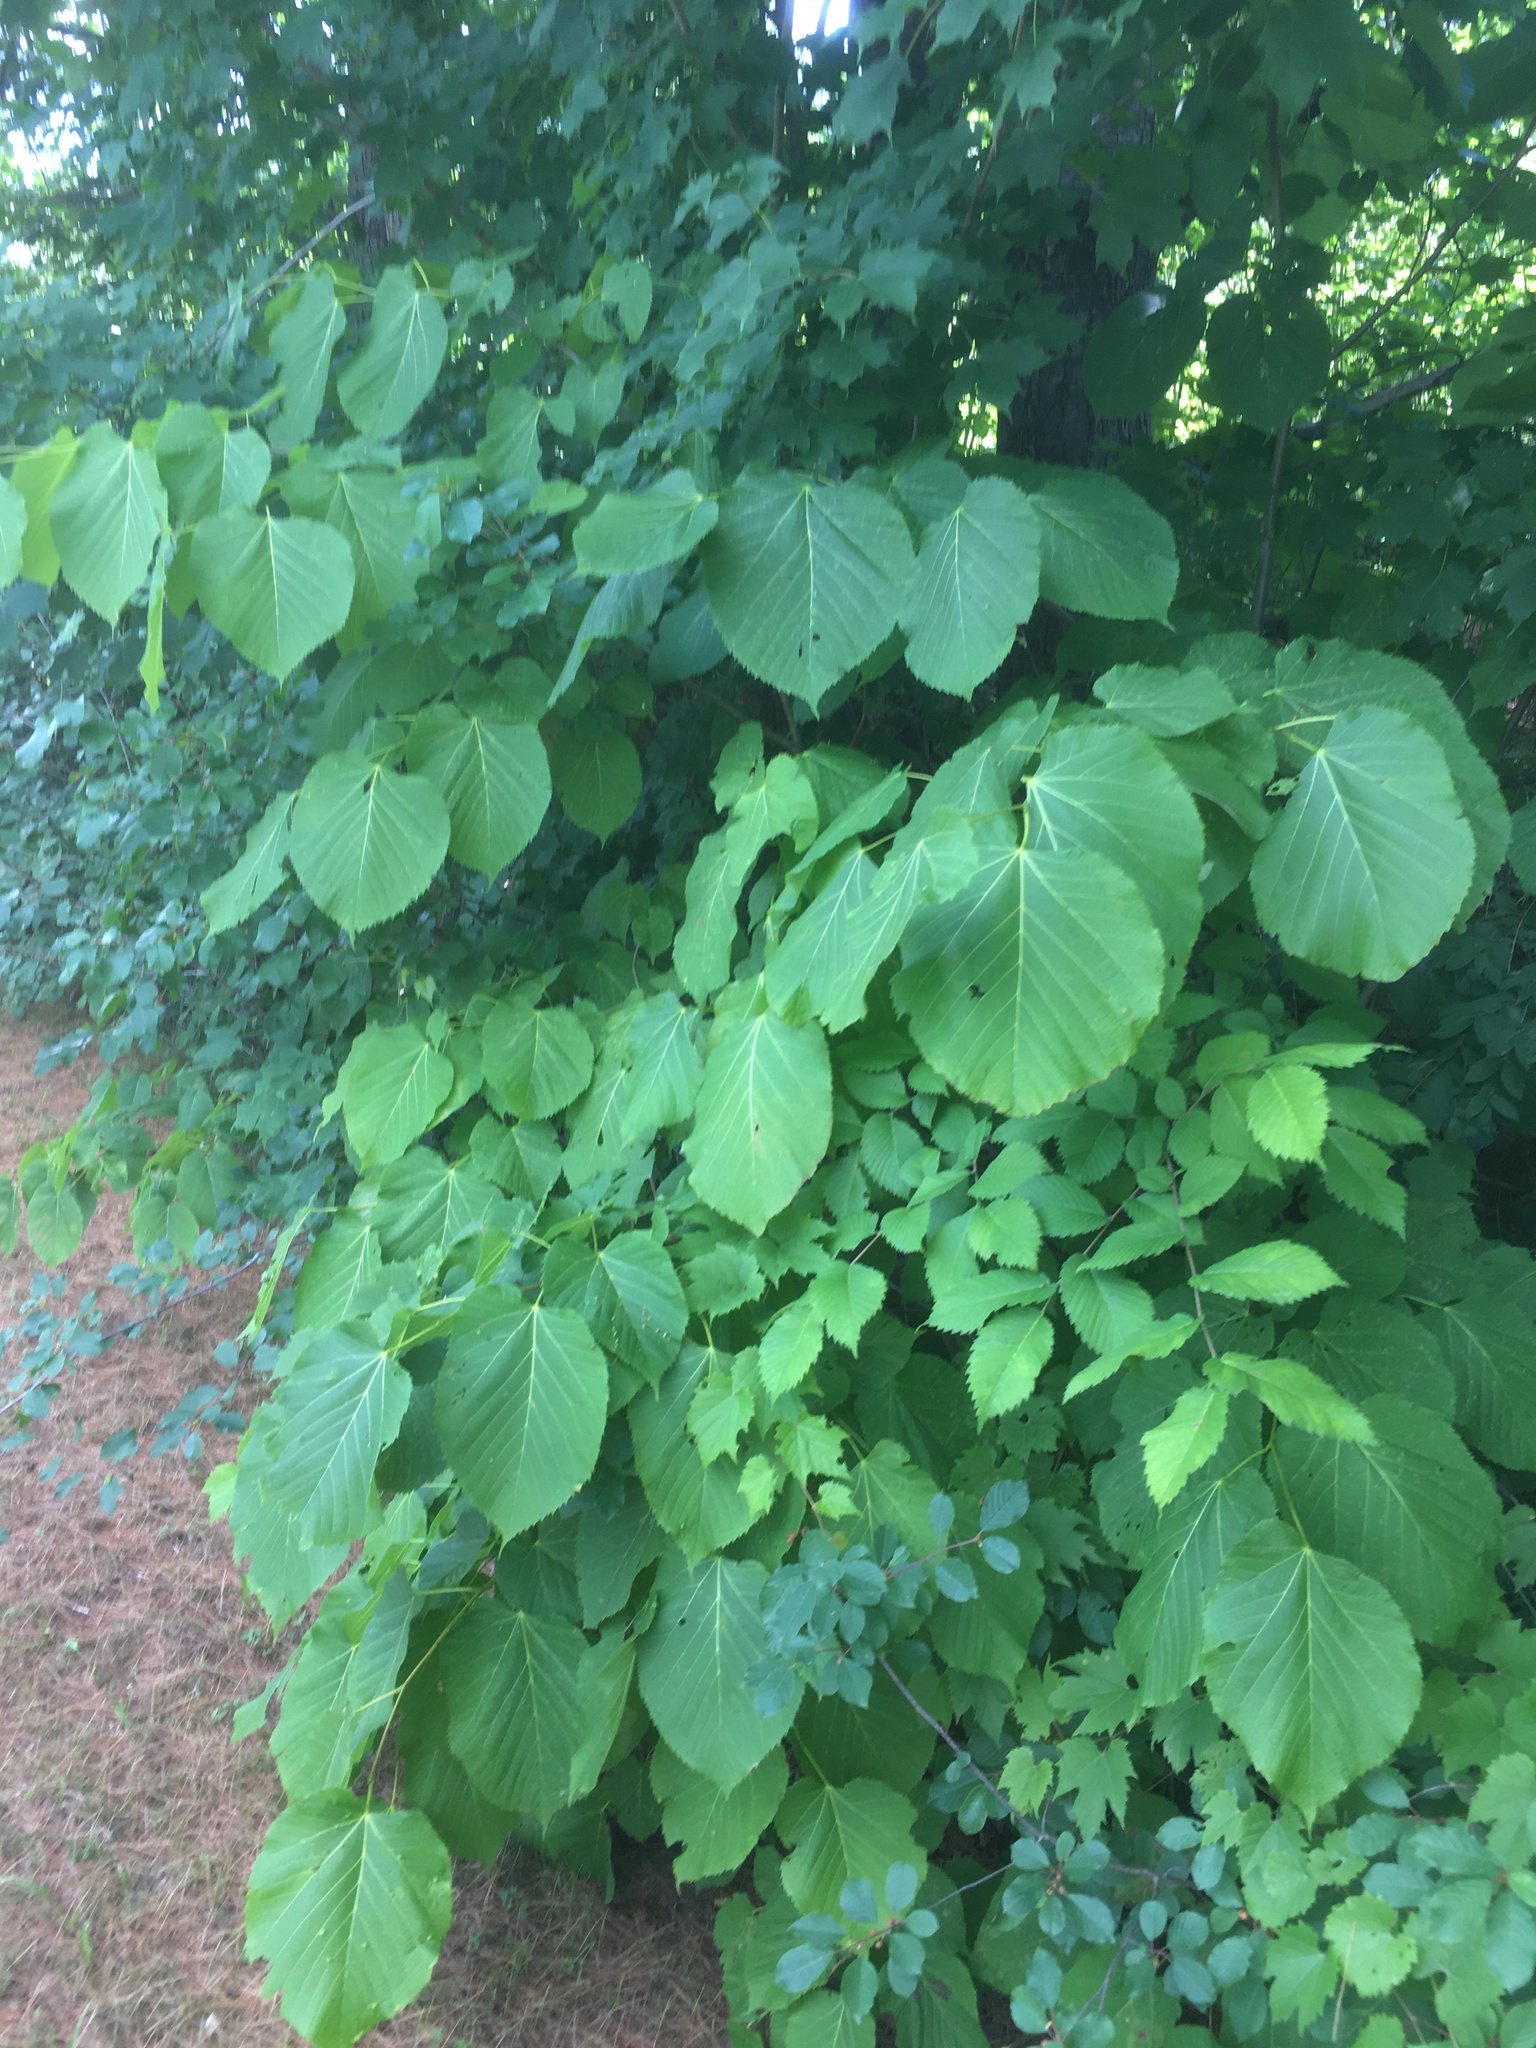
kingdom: Plantae
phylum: Tracheophyta
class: Magnoliopsida
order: Malvales
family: Malvaceae
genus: Tilia
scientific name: Tilia americana
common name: Basswood
